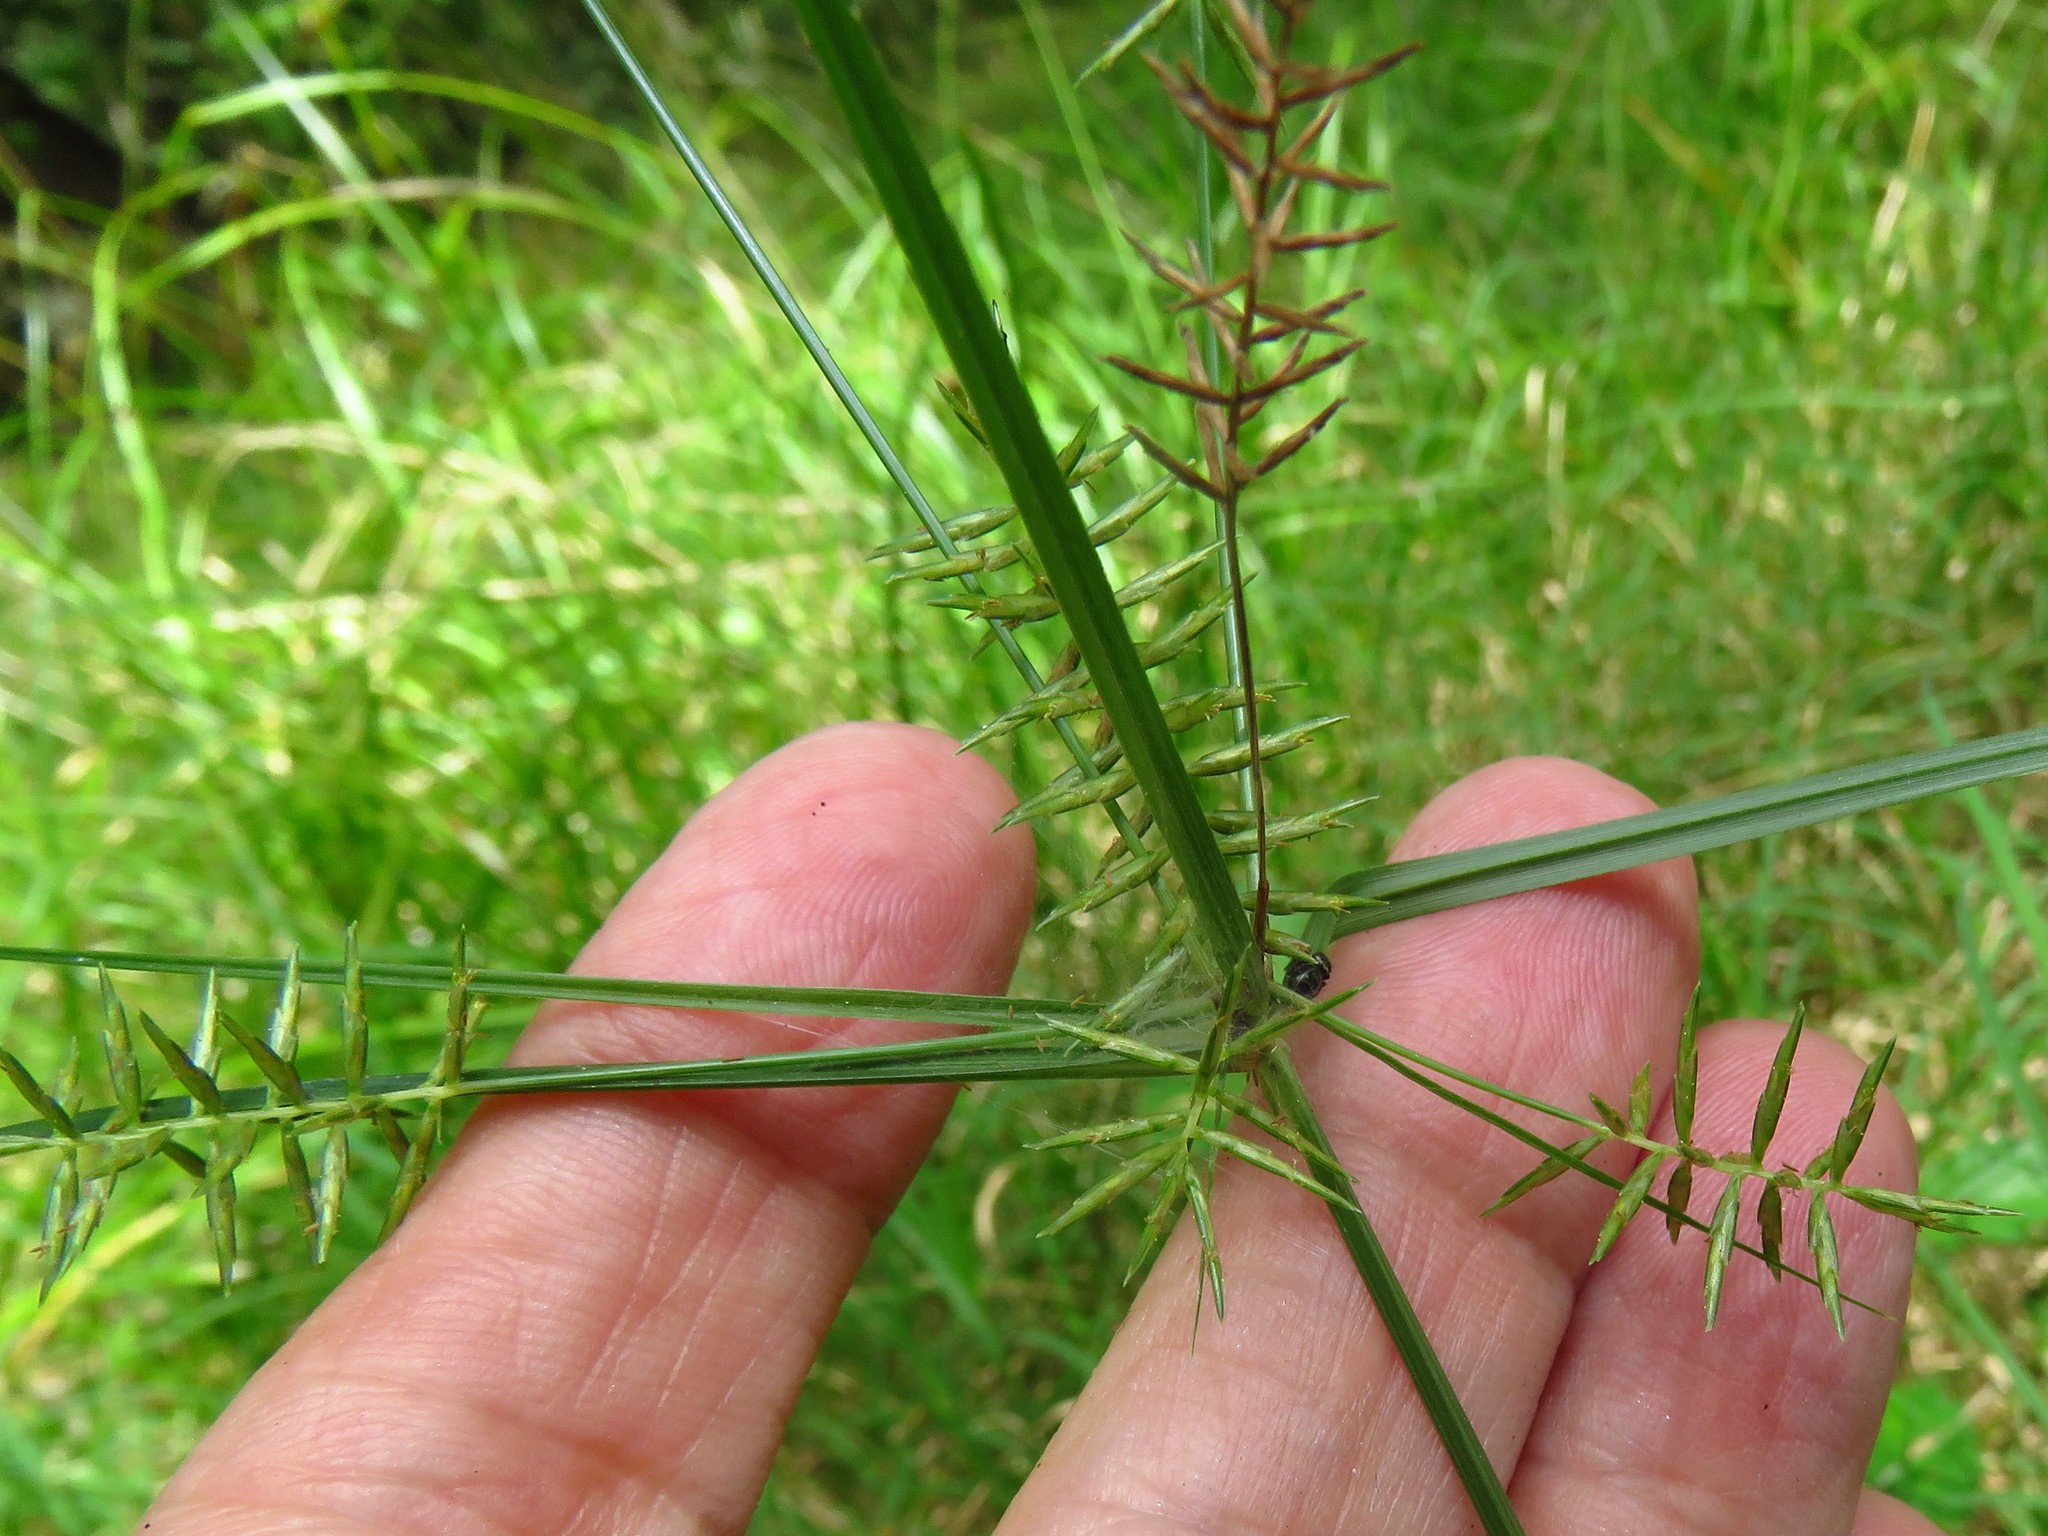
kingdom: Plantae
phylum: Tracheophyta
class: Liliopsida
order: Poales
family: Cyperaceae
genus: Cyperus
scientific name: Cyperus thyrsiflorus
